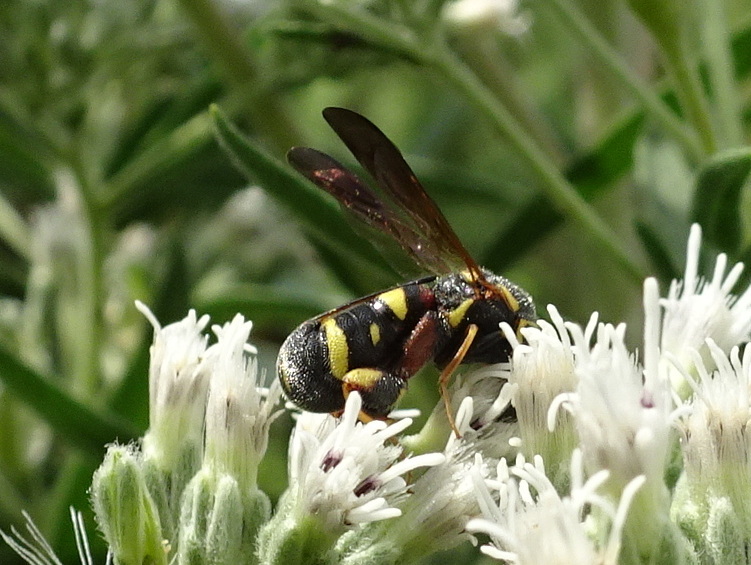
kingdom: Animalia
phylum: Arthropoda
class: Insecta
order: Hymenoptera
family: Leucospidae
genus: Leucospis
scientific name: Leucospis affinis
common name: Wasp
